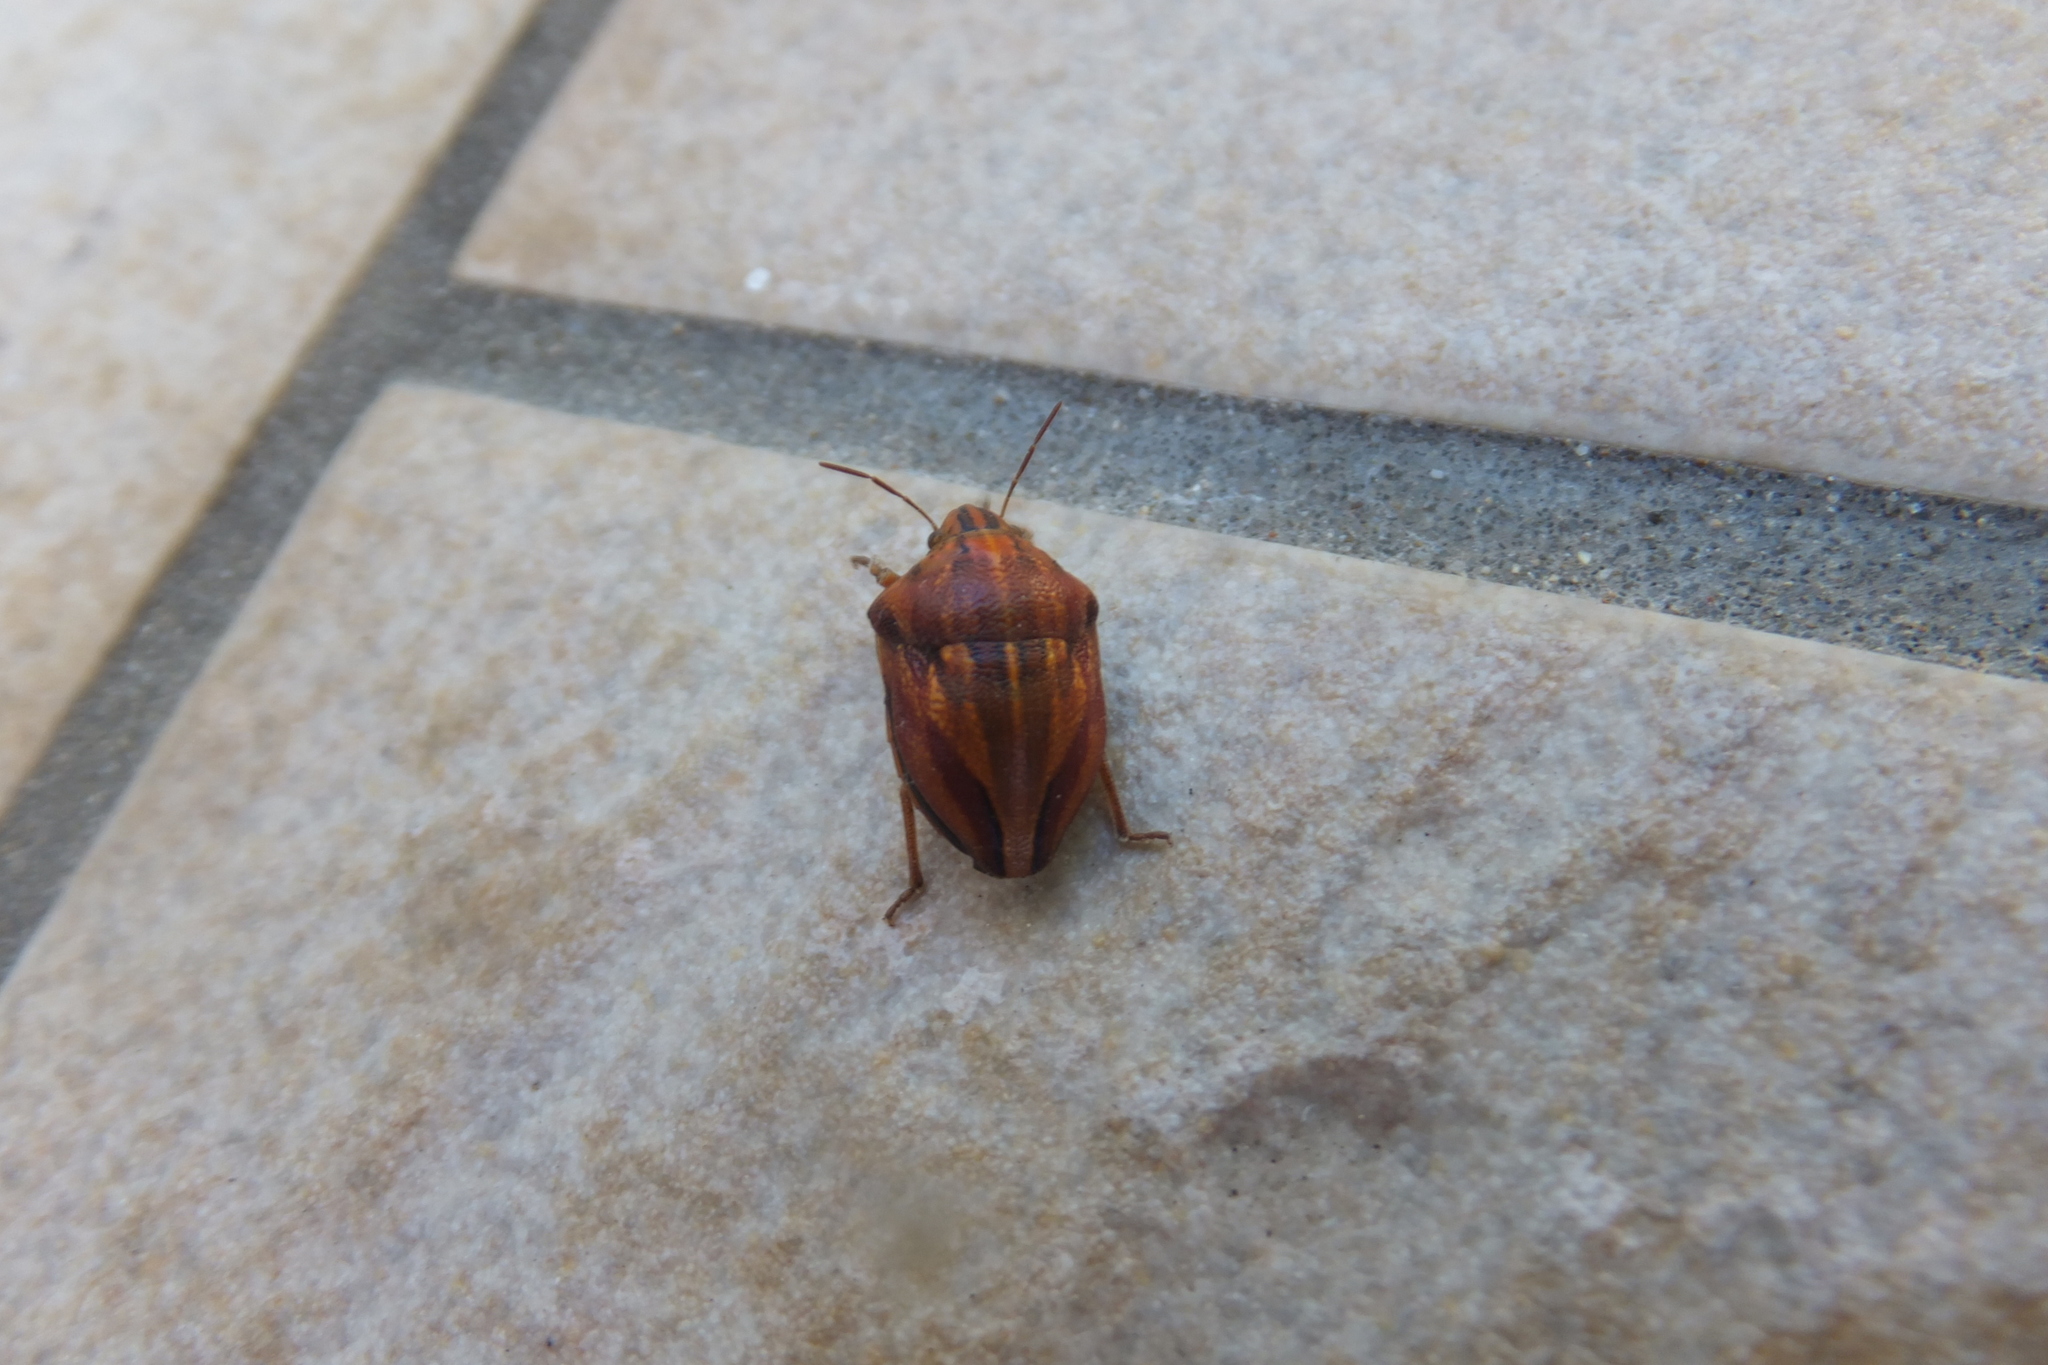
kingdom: Animalia
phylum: Arthropoda
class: Insecta
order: Hemiptera
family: Scutelleridae
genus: Odontotarsus
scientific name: Odontotarsus purpureolineatus
